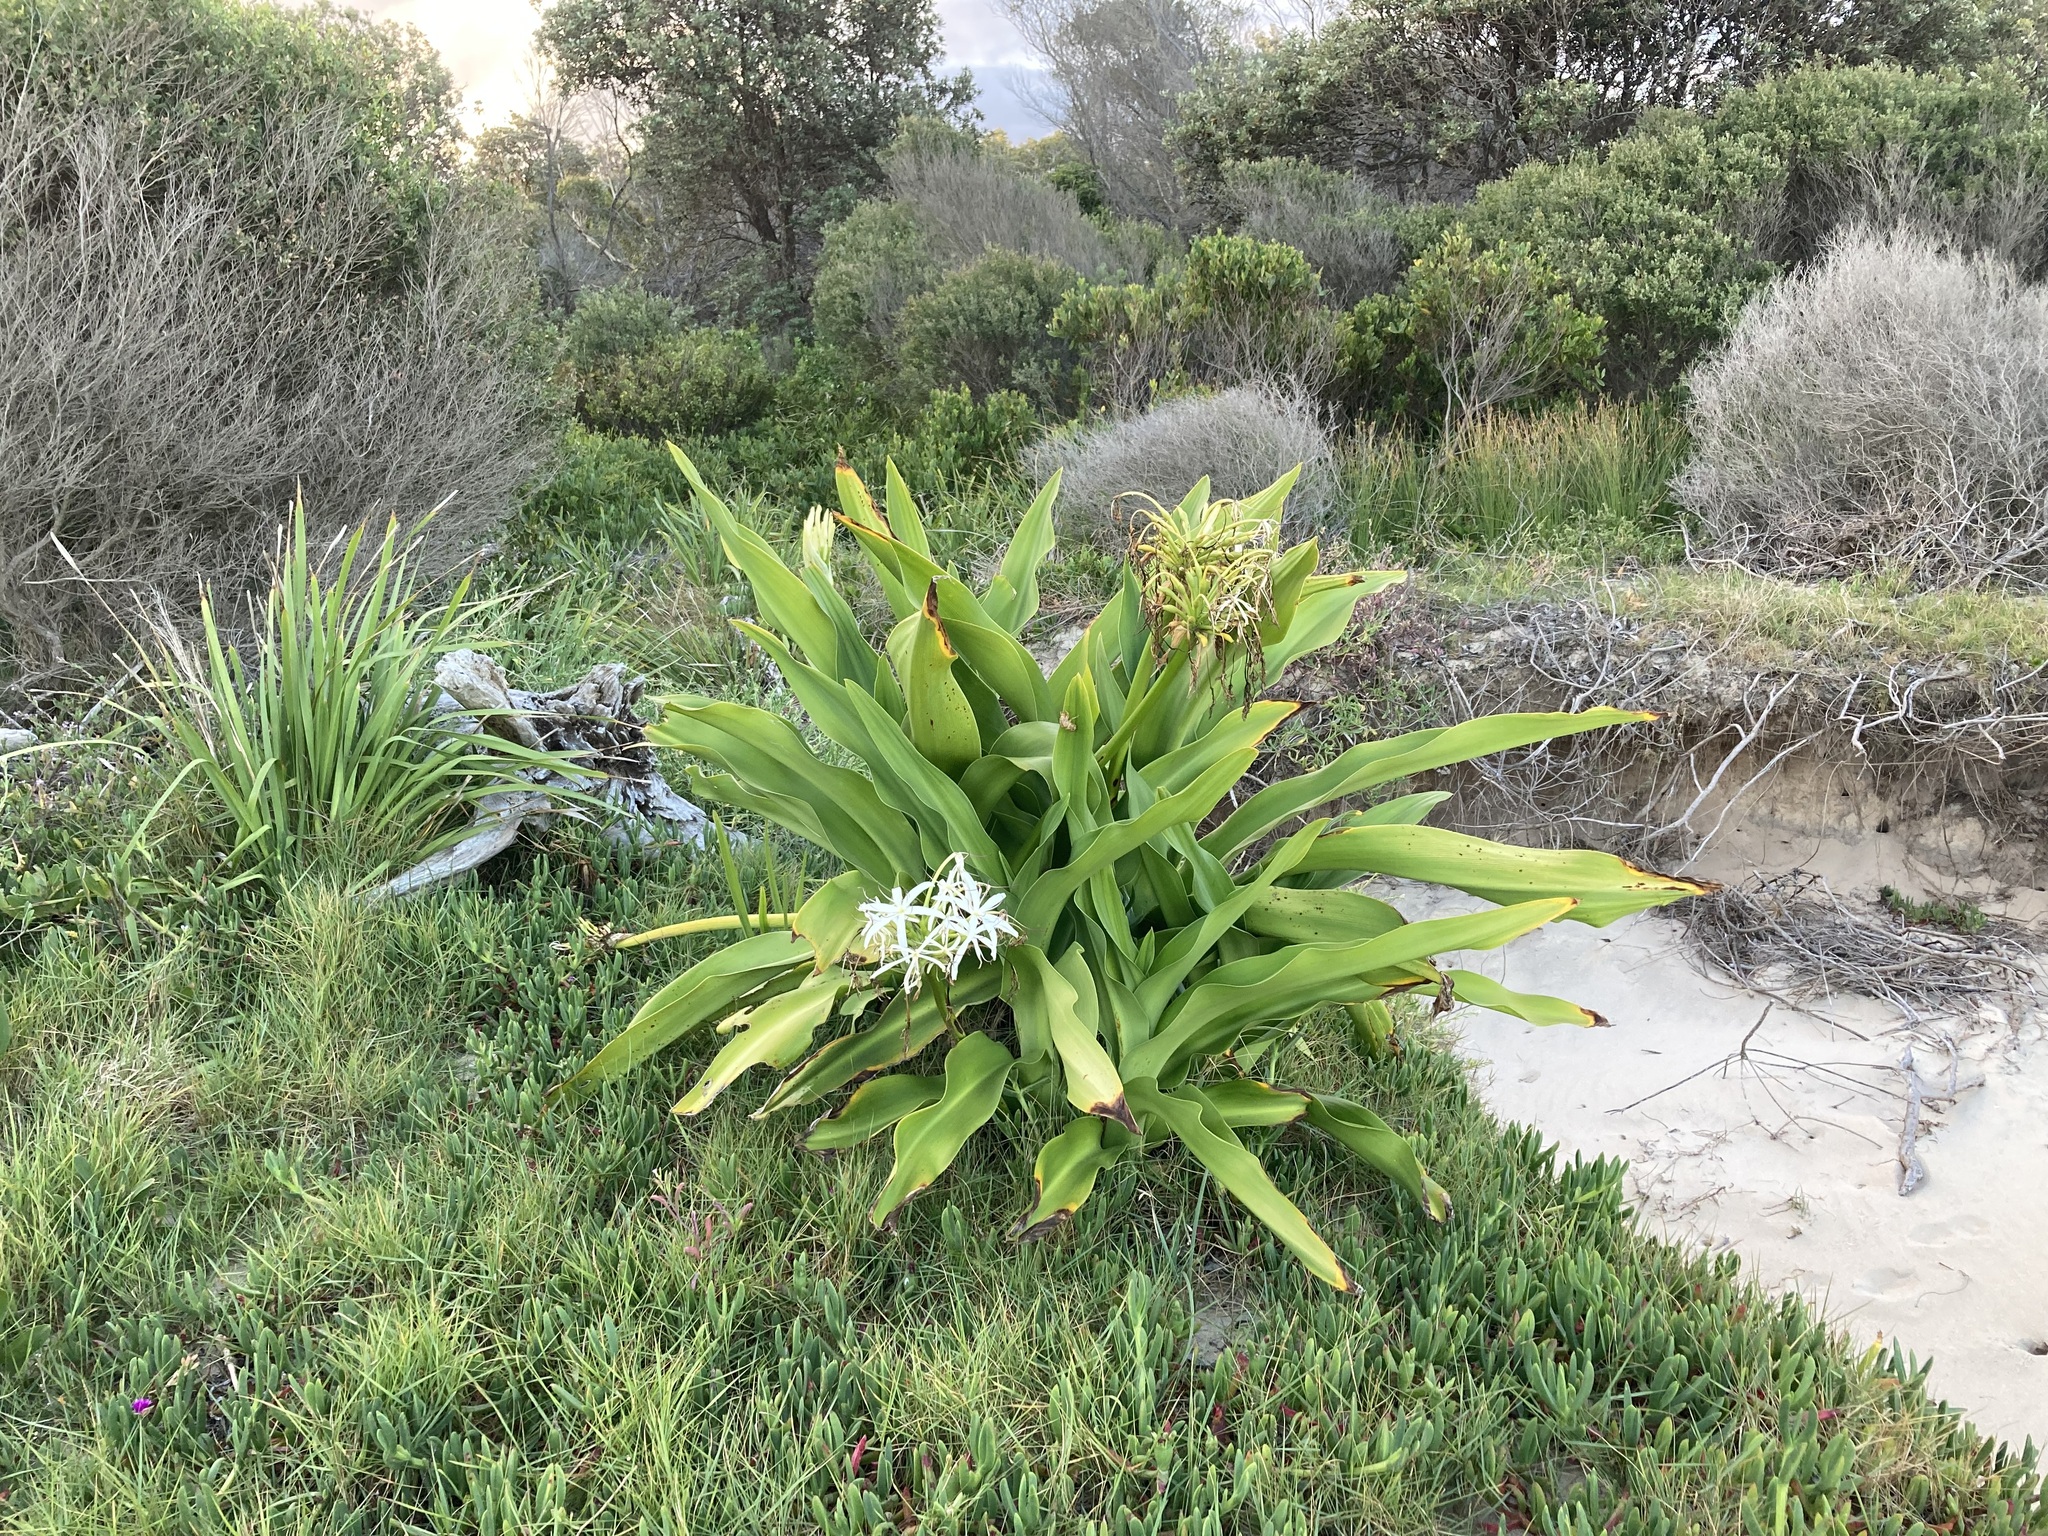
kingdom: Plantae
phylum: Tracheophyta
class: Liliopsida
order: Asparagales
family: Amaryllidaceae
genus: Crinum
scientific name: Crinum pedunculatum
